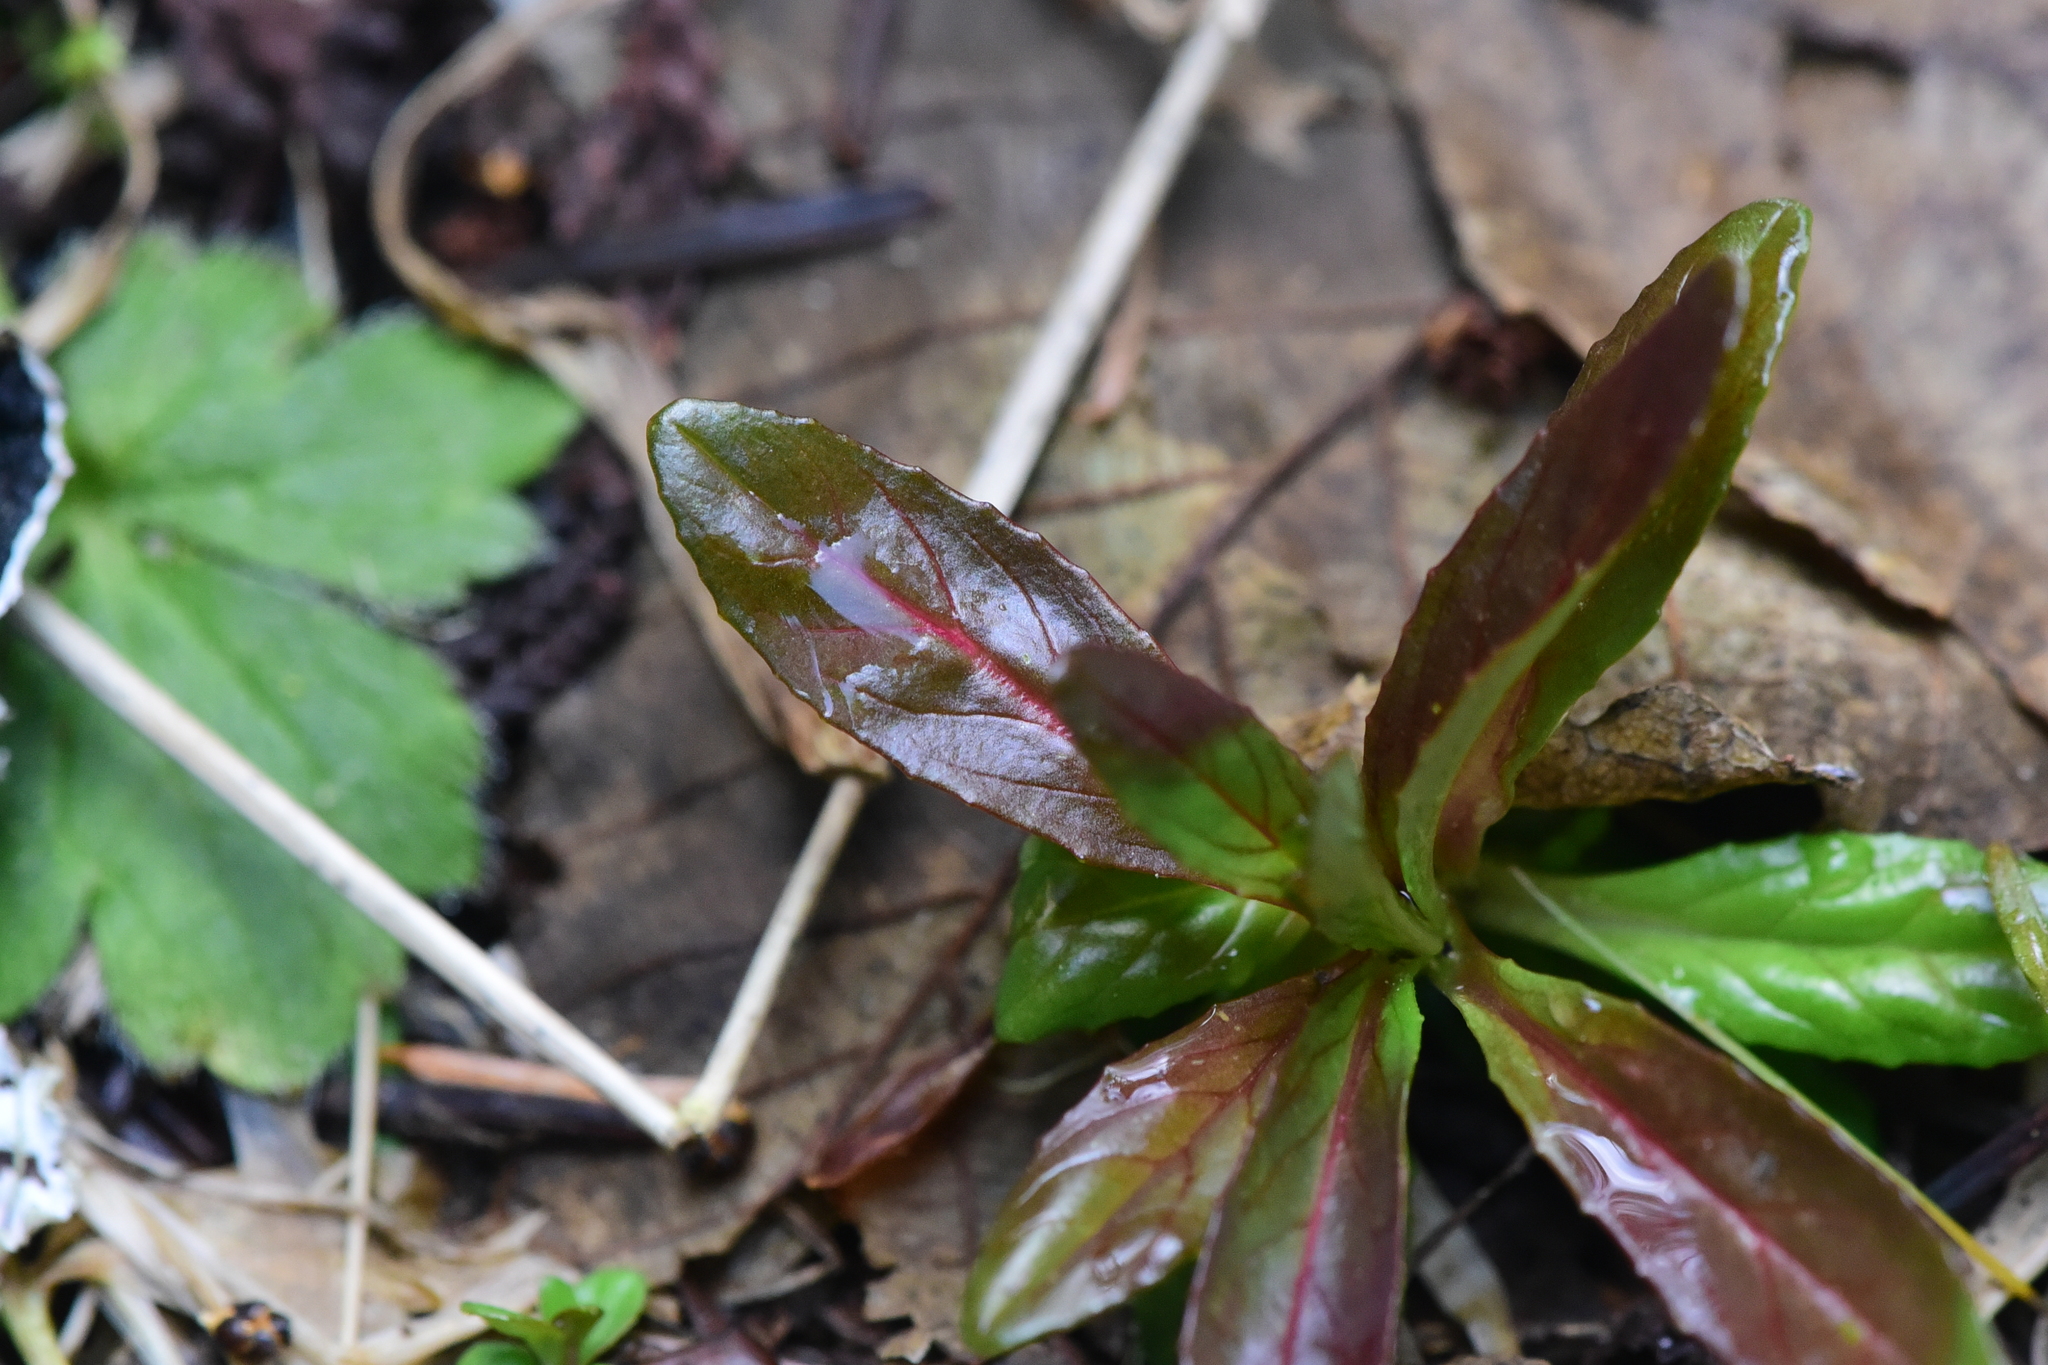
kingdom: Plantae
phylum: Tracheophyta
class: Magnoliopsida
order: Myrtales
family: Onagraceae
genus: Epilobium
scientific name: Epilobium ciliatum
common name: American willowherb
